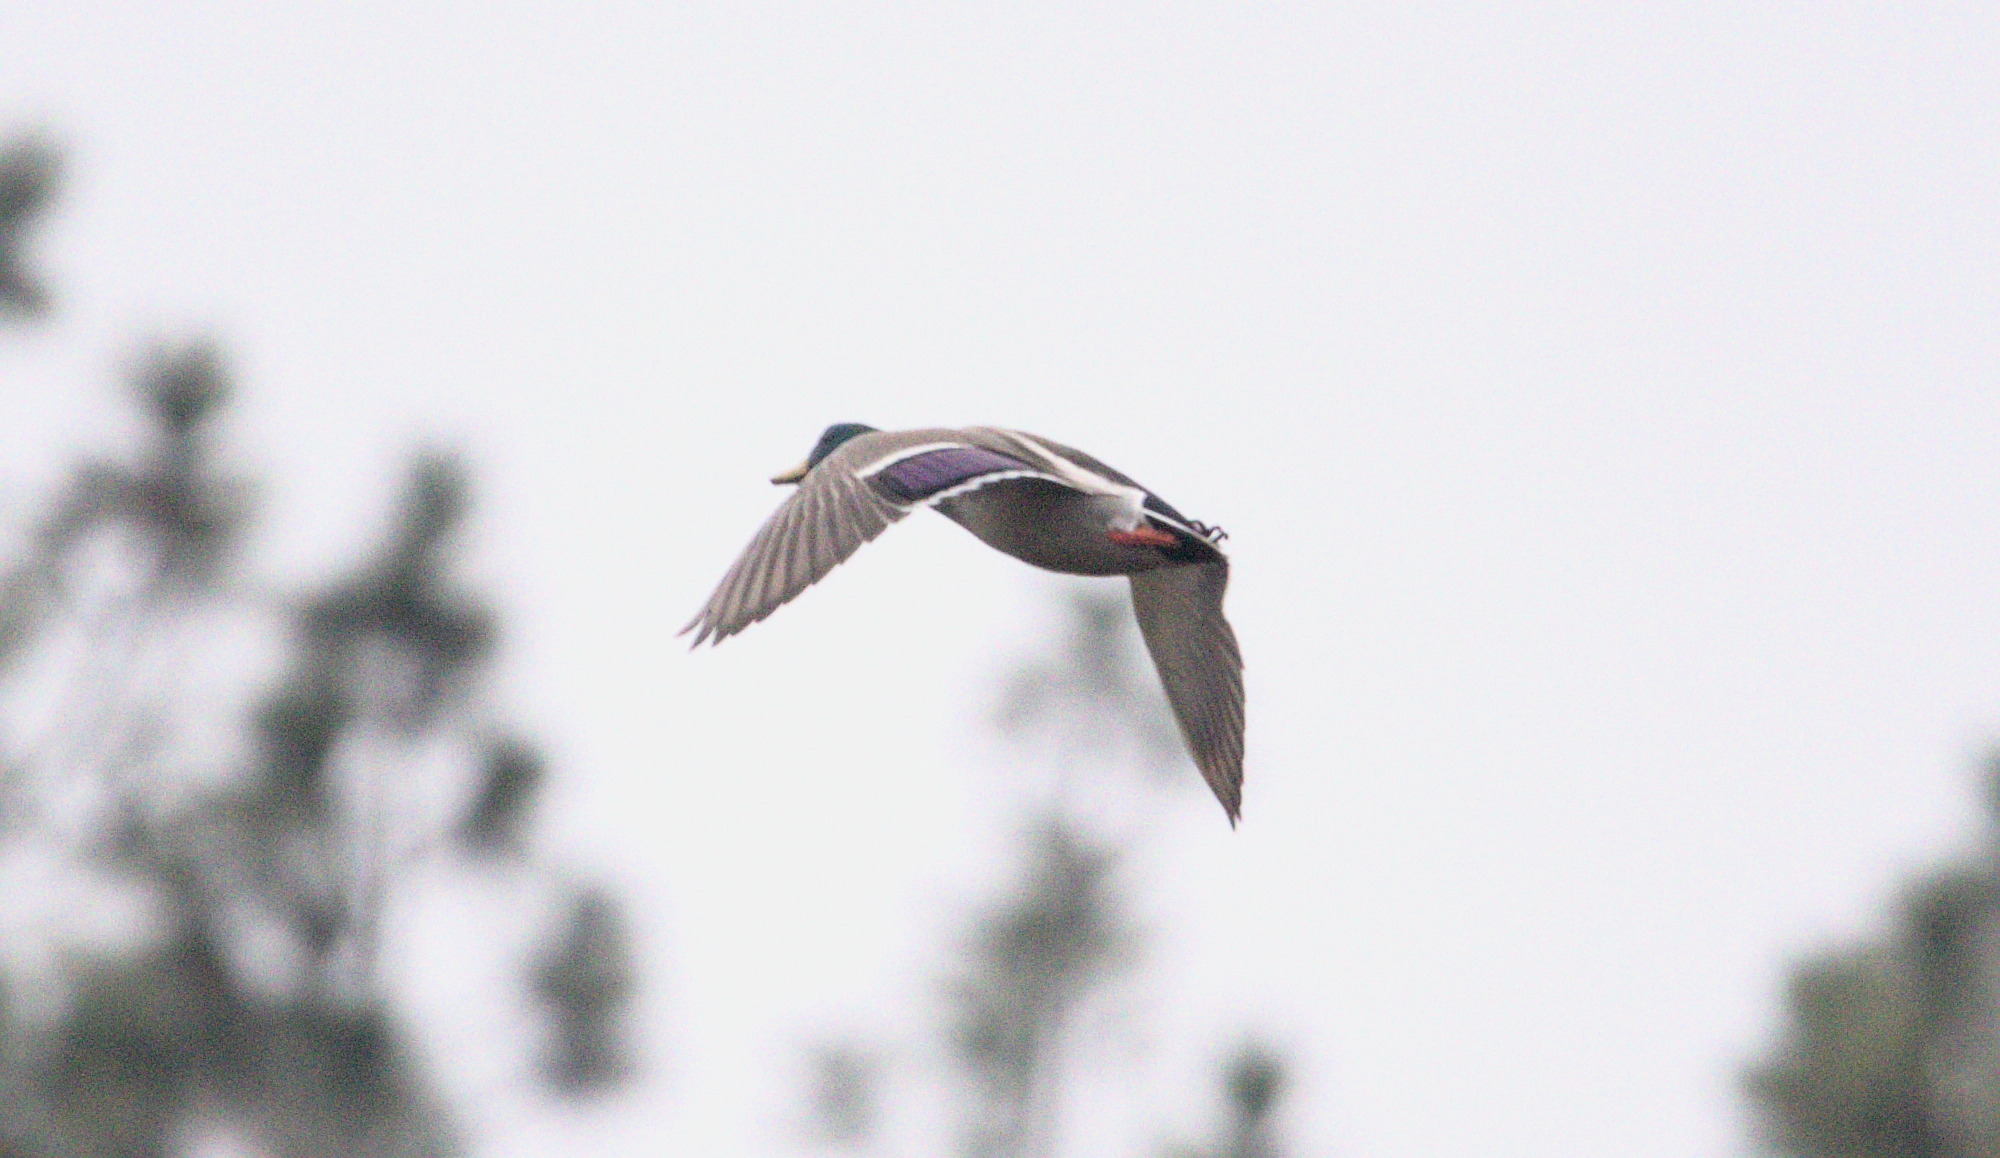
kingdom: Animalia
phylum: Chordata
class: Aves
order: Anseriformes
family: Anatidae
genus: Anas
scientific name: Anas platyrhynchos
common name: Mallard
